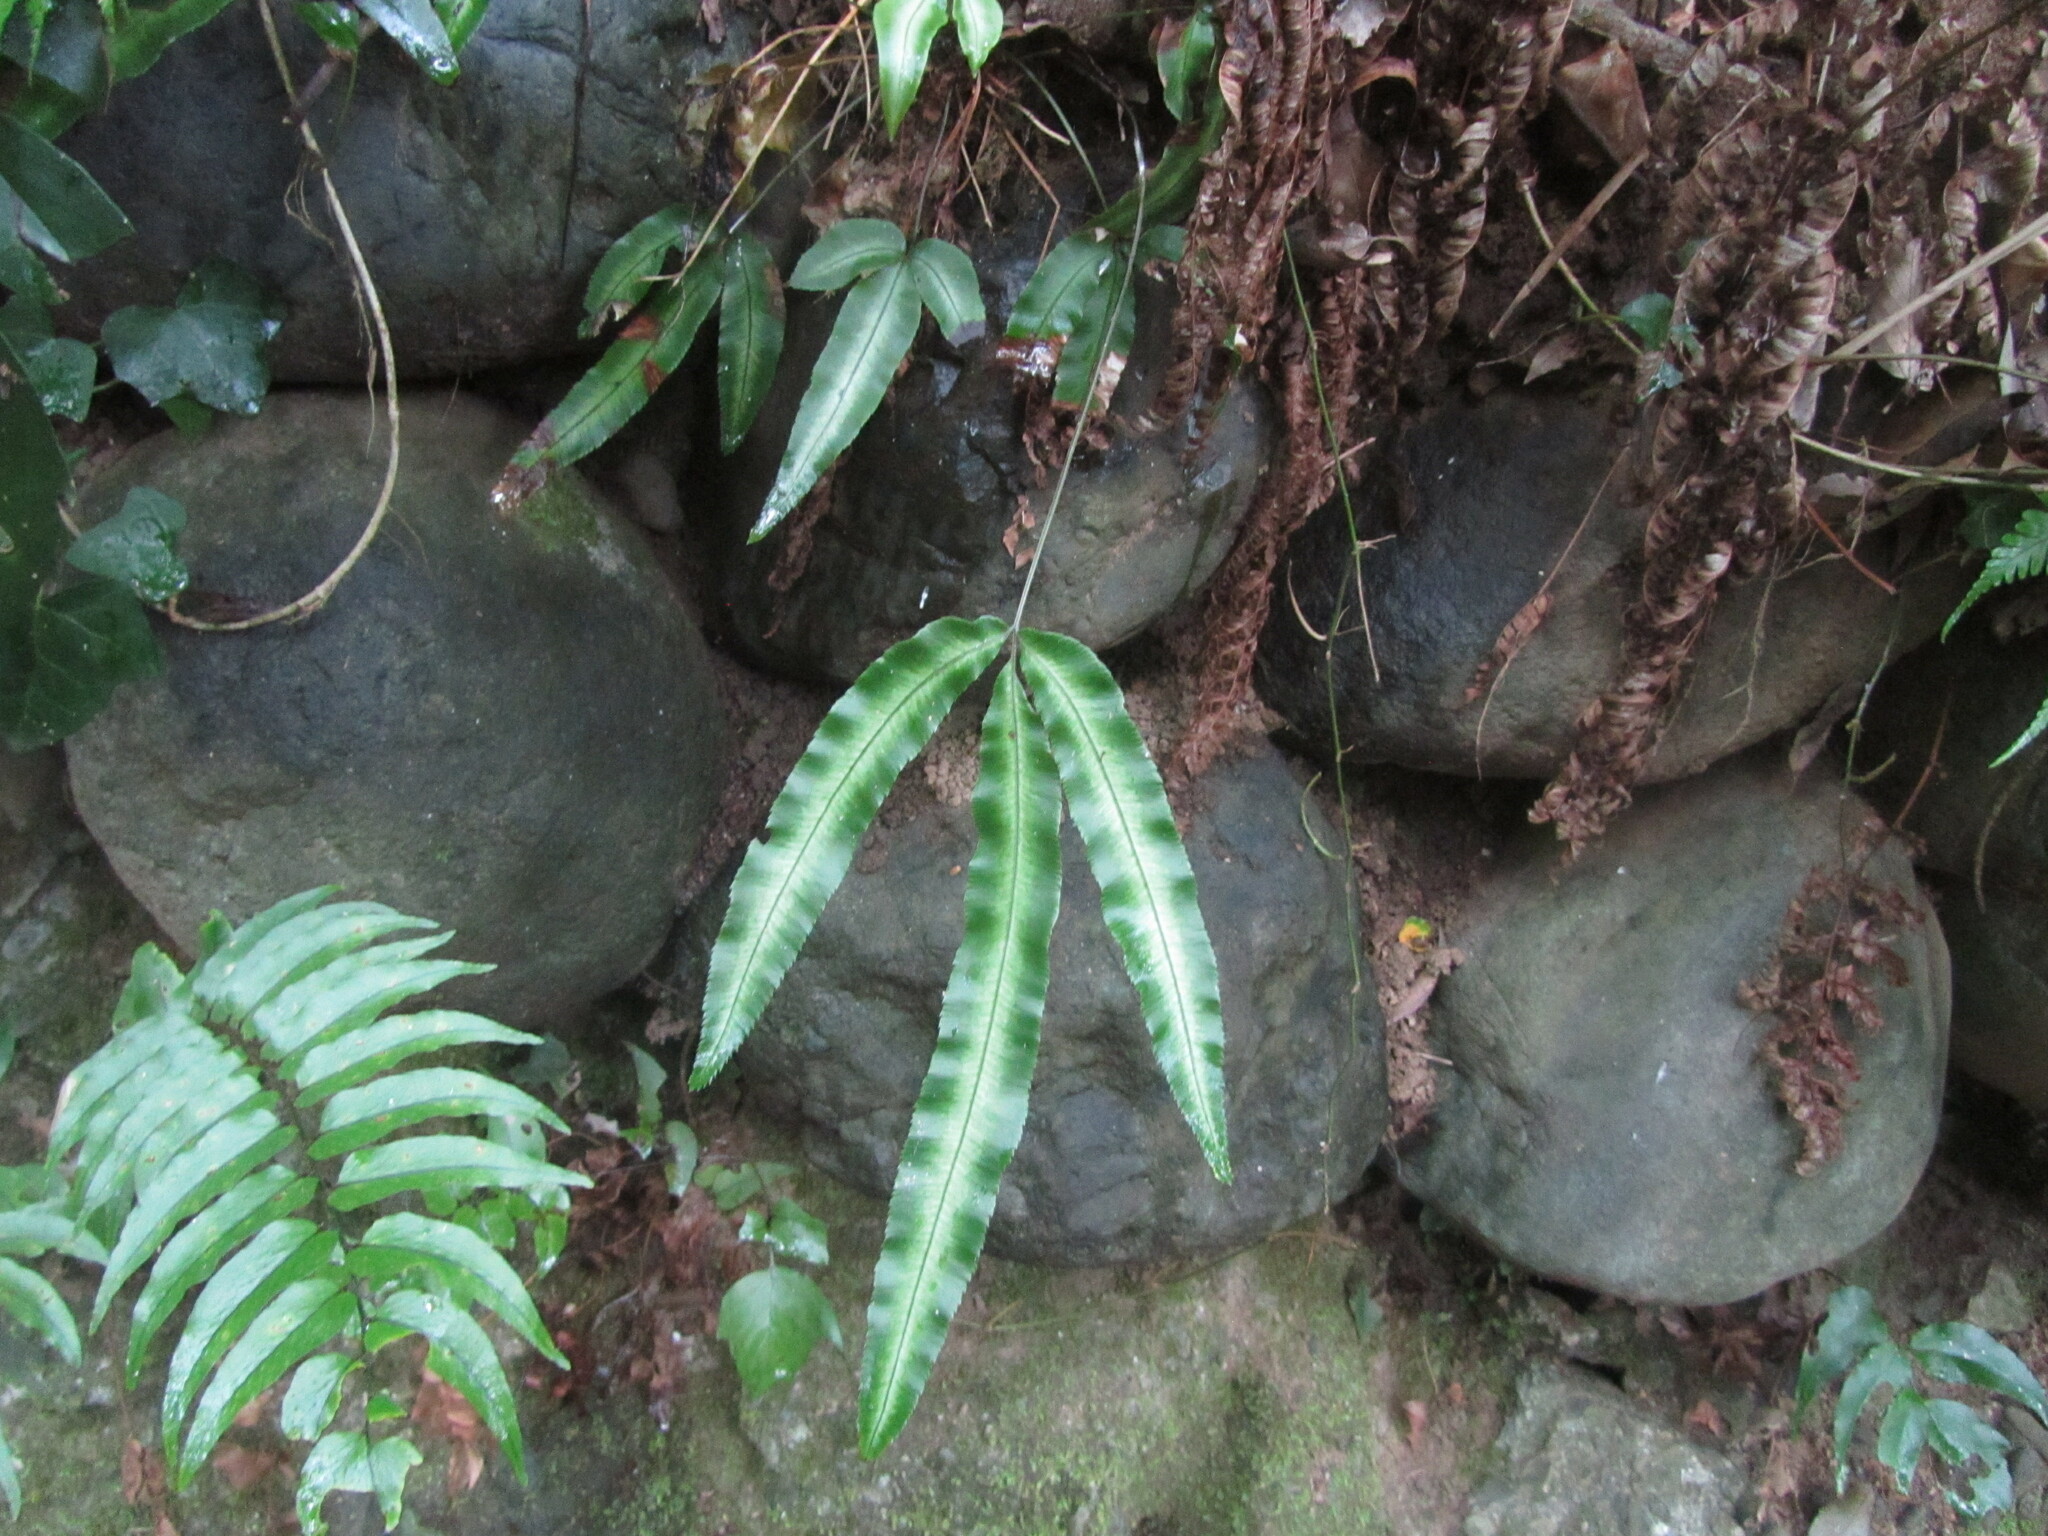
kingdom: Plantae
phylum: Tracheophyta
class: Polypodiopsida
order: Polypodiales
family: Pteridaceae
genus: Pteris
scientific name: Pteris parkeri
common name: Cretan brake
